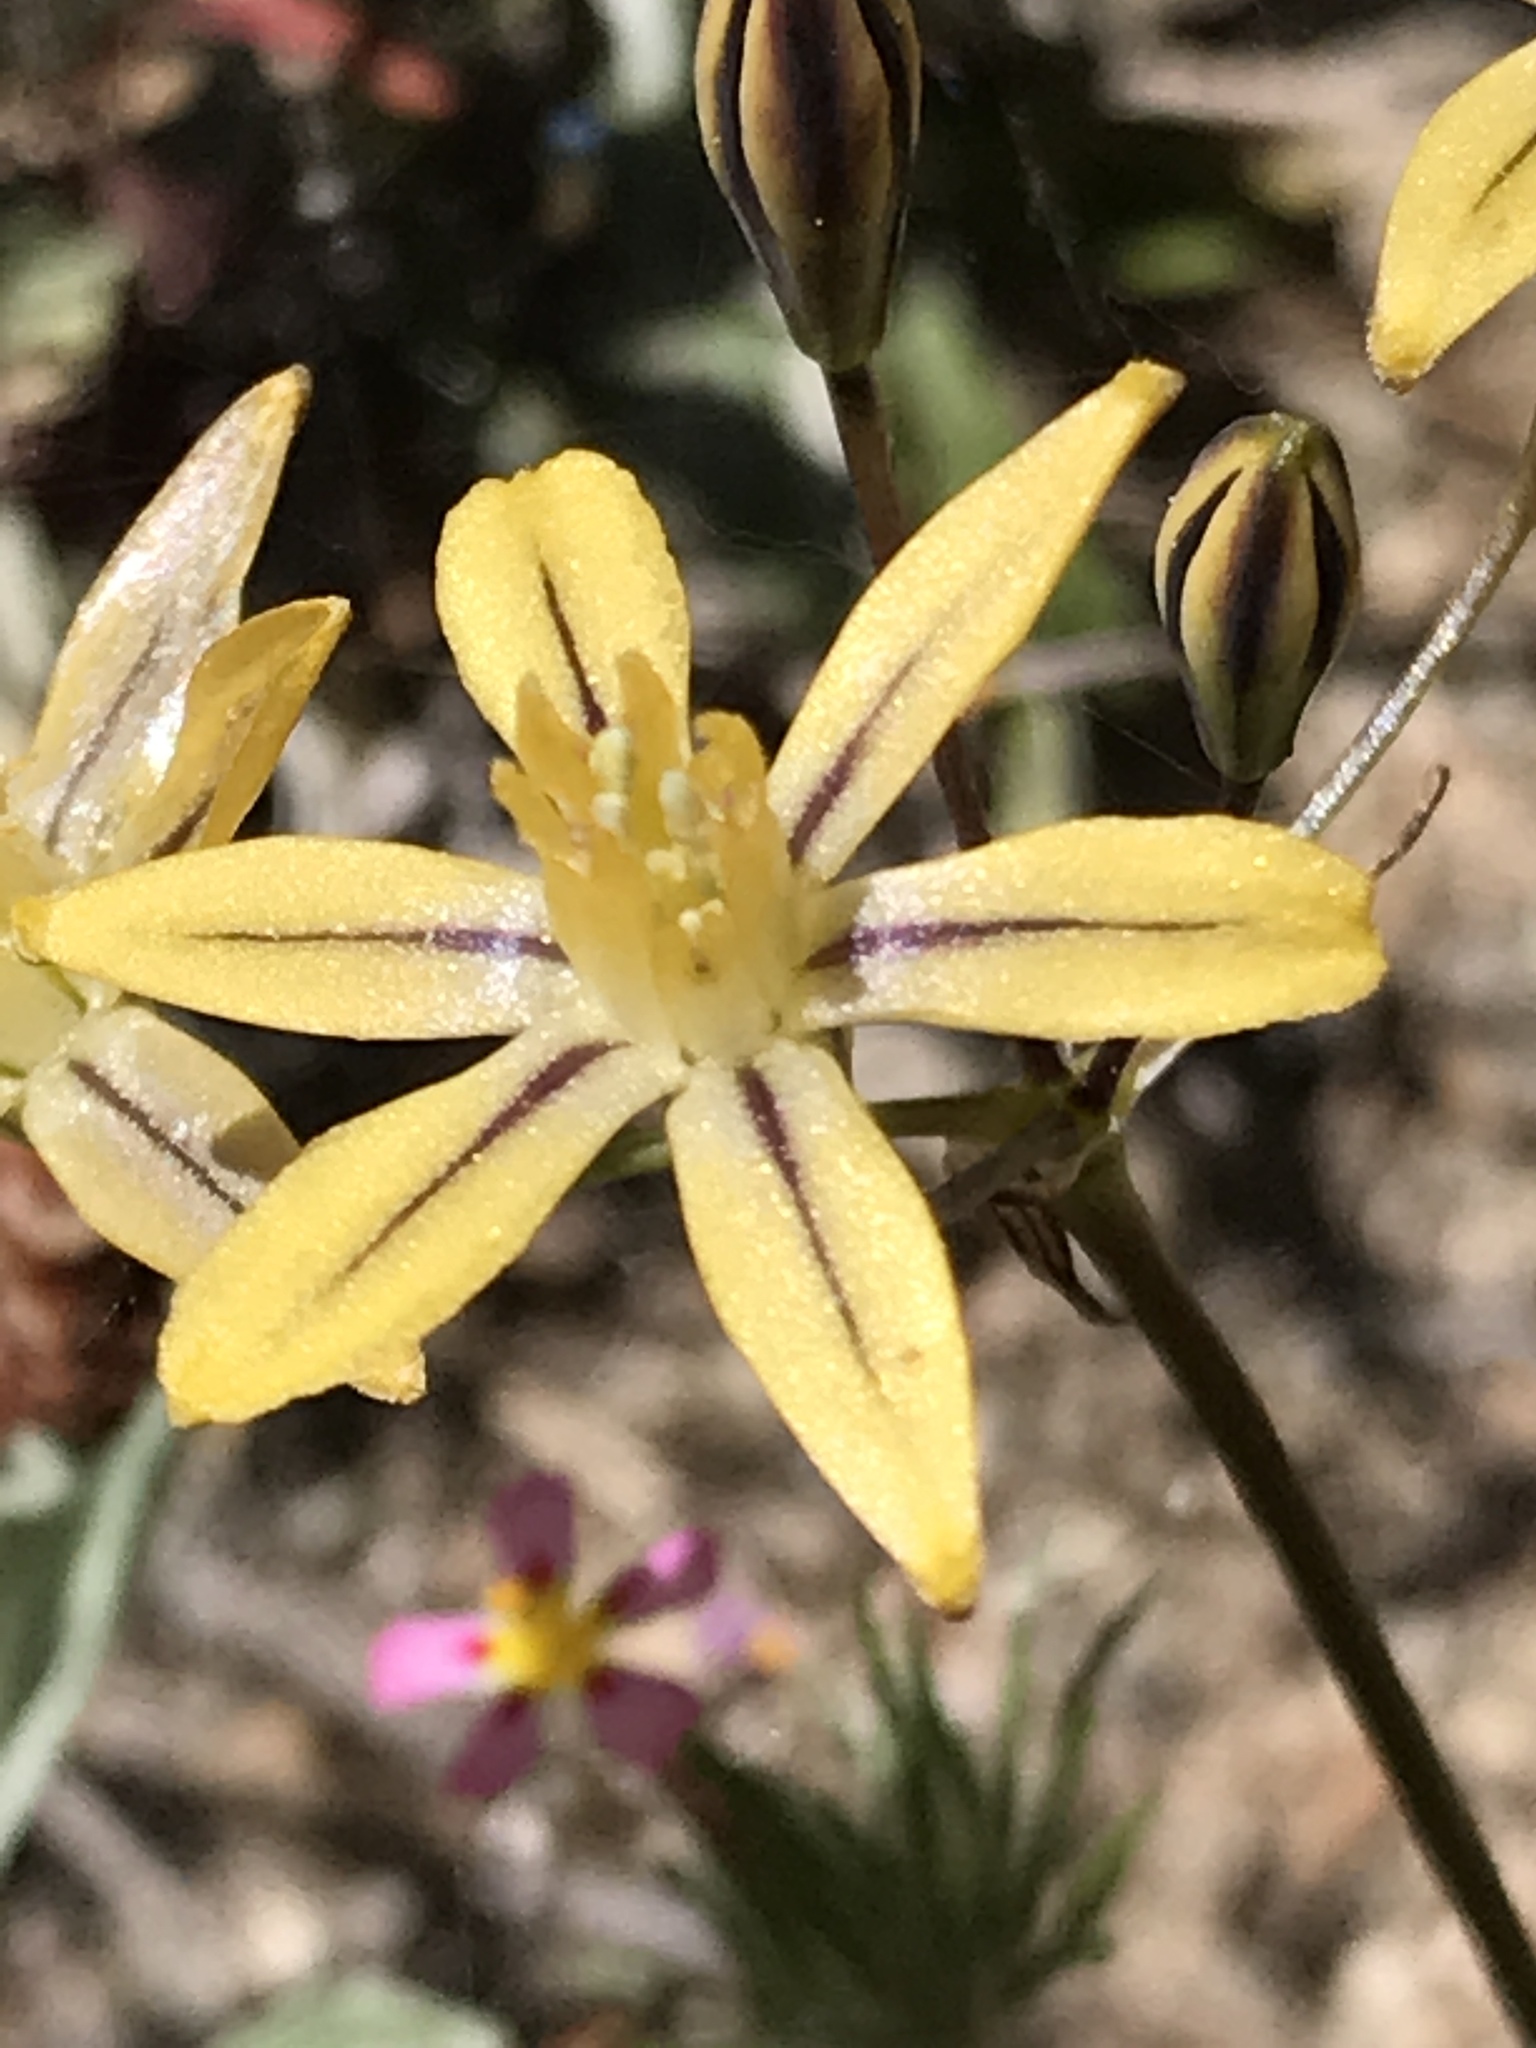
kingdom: Plantae
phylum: Tracheophyta
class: Liliopsida
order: Asparagales
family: Asparagaceae
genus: Triteleia
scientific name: Triteleia ixioides
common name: Yellow-brodiaea
